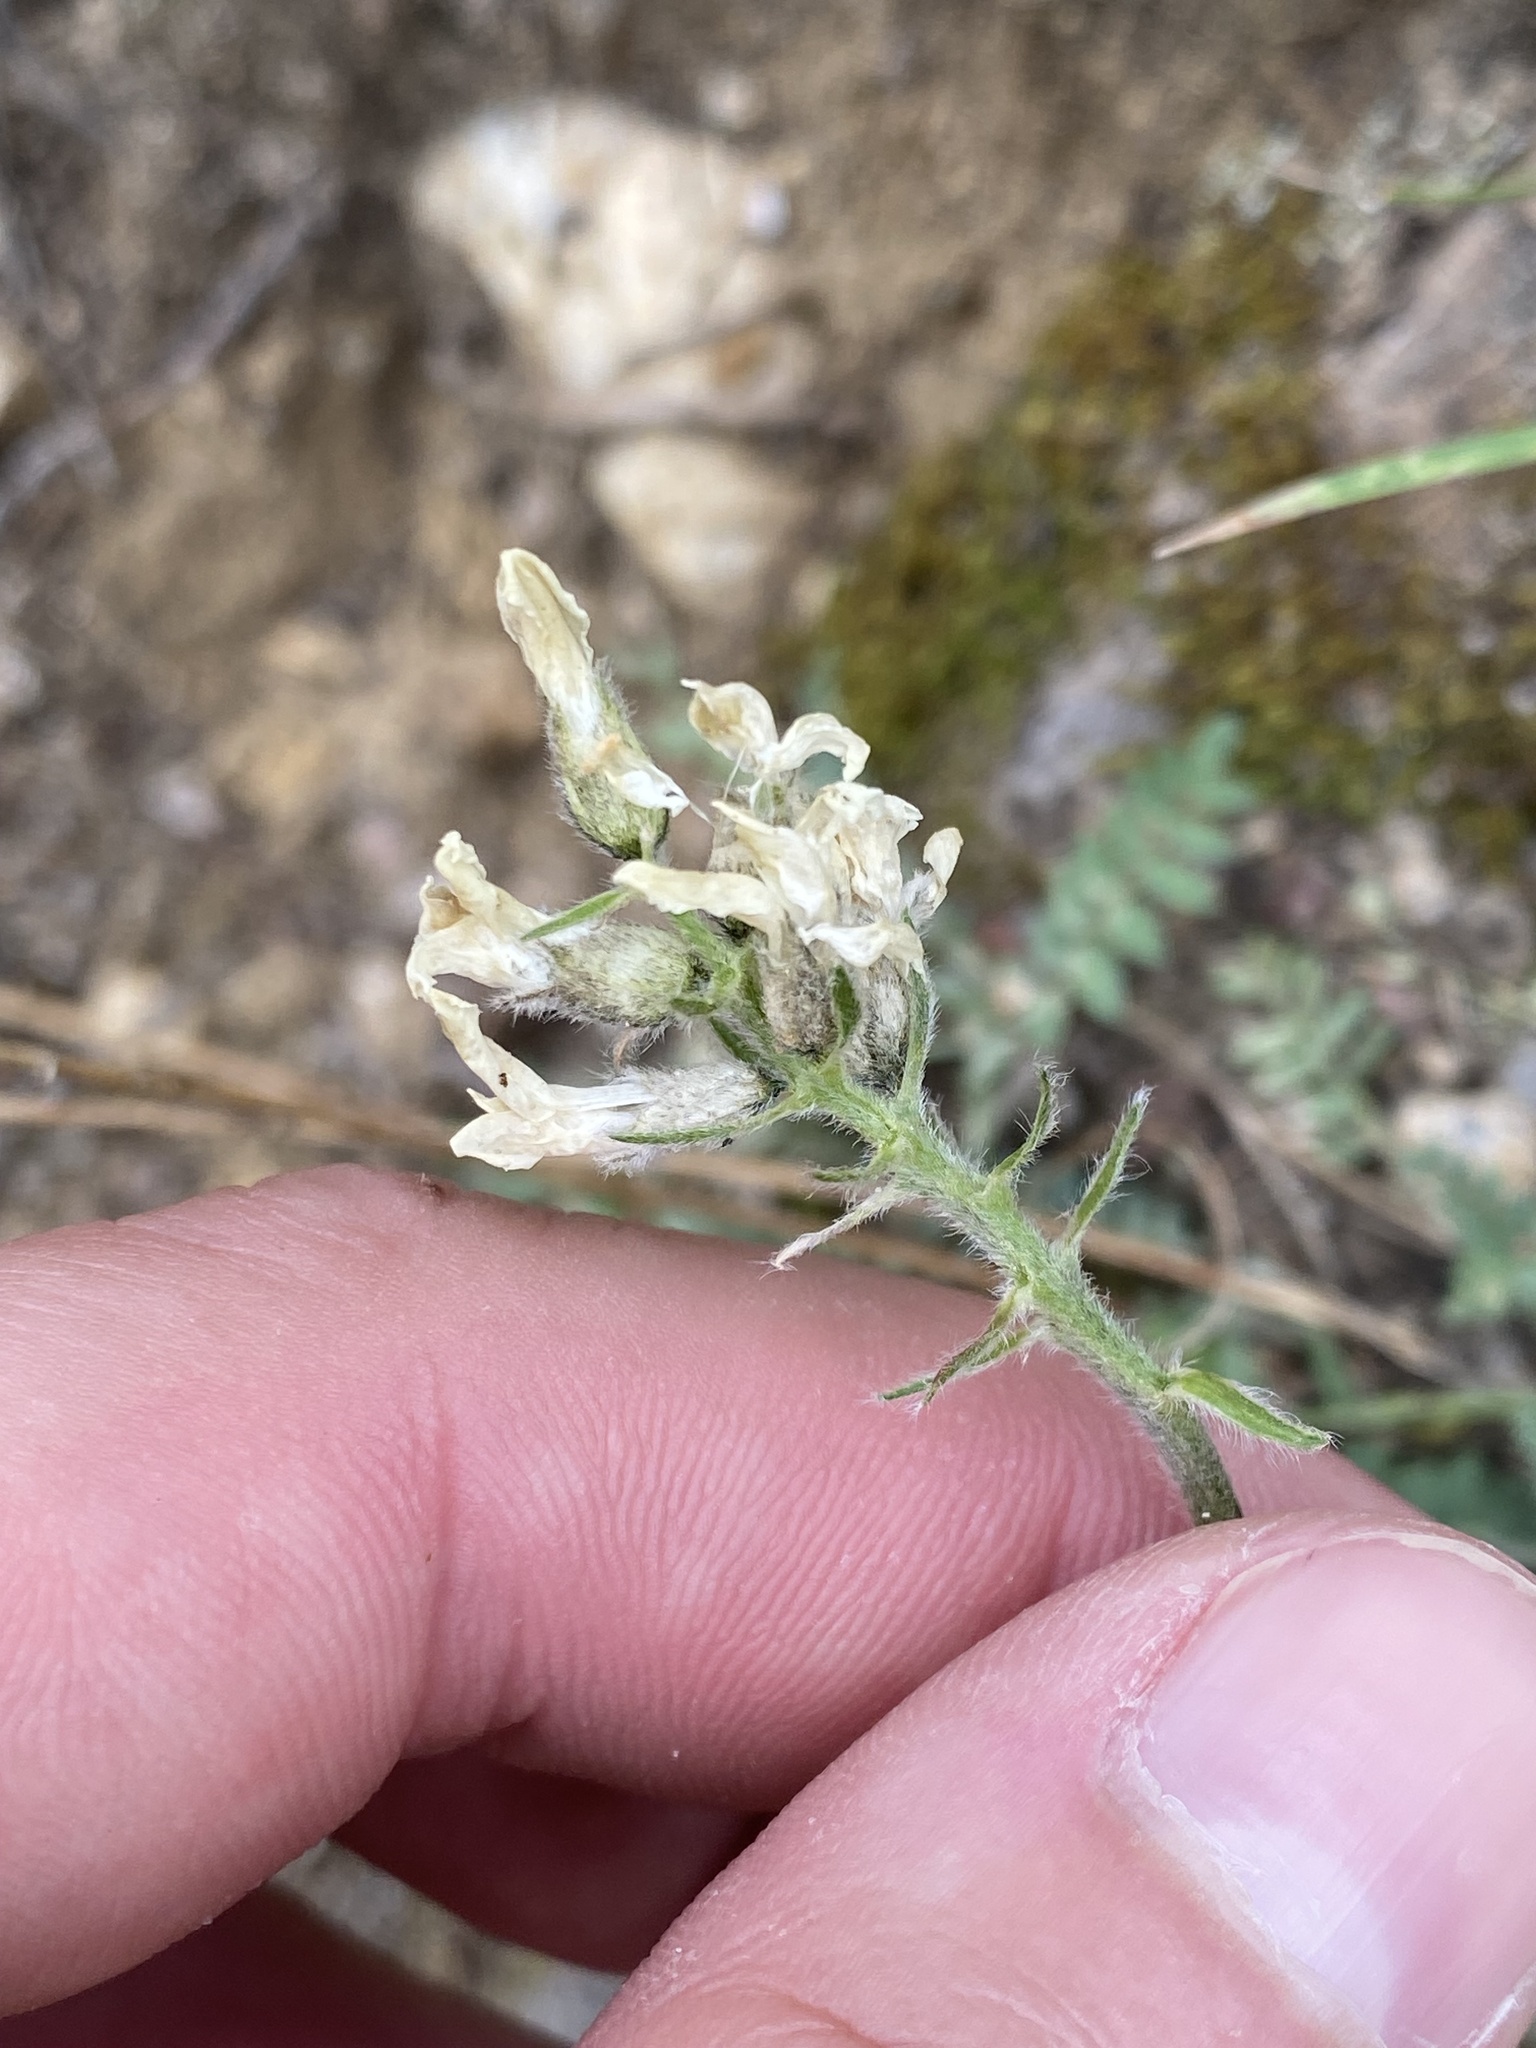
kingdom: Plantae
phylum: Tracheophyta
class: Magnoliopsida
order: Fabales
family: Fabaceae
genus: Oxytropis
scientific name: Oxytropis campestris
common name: Field locoweed
